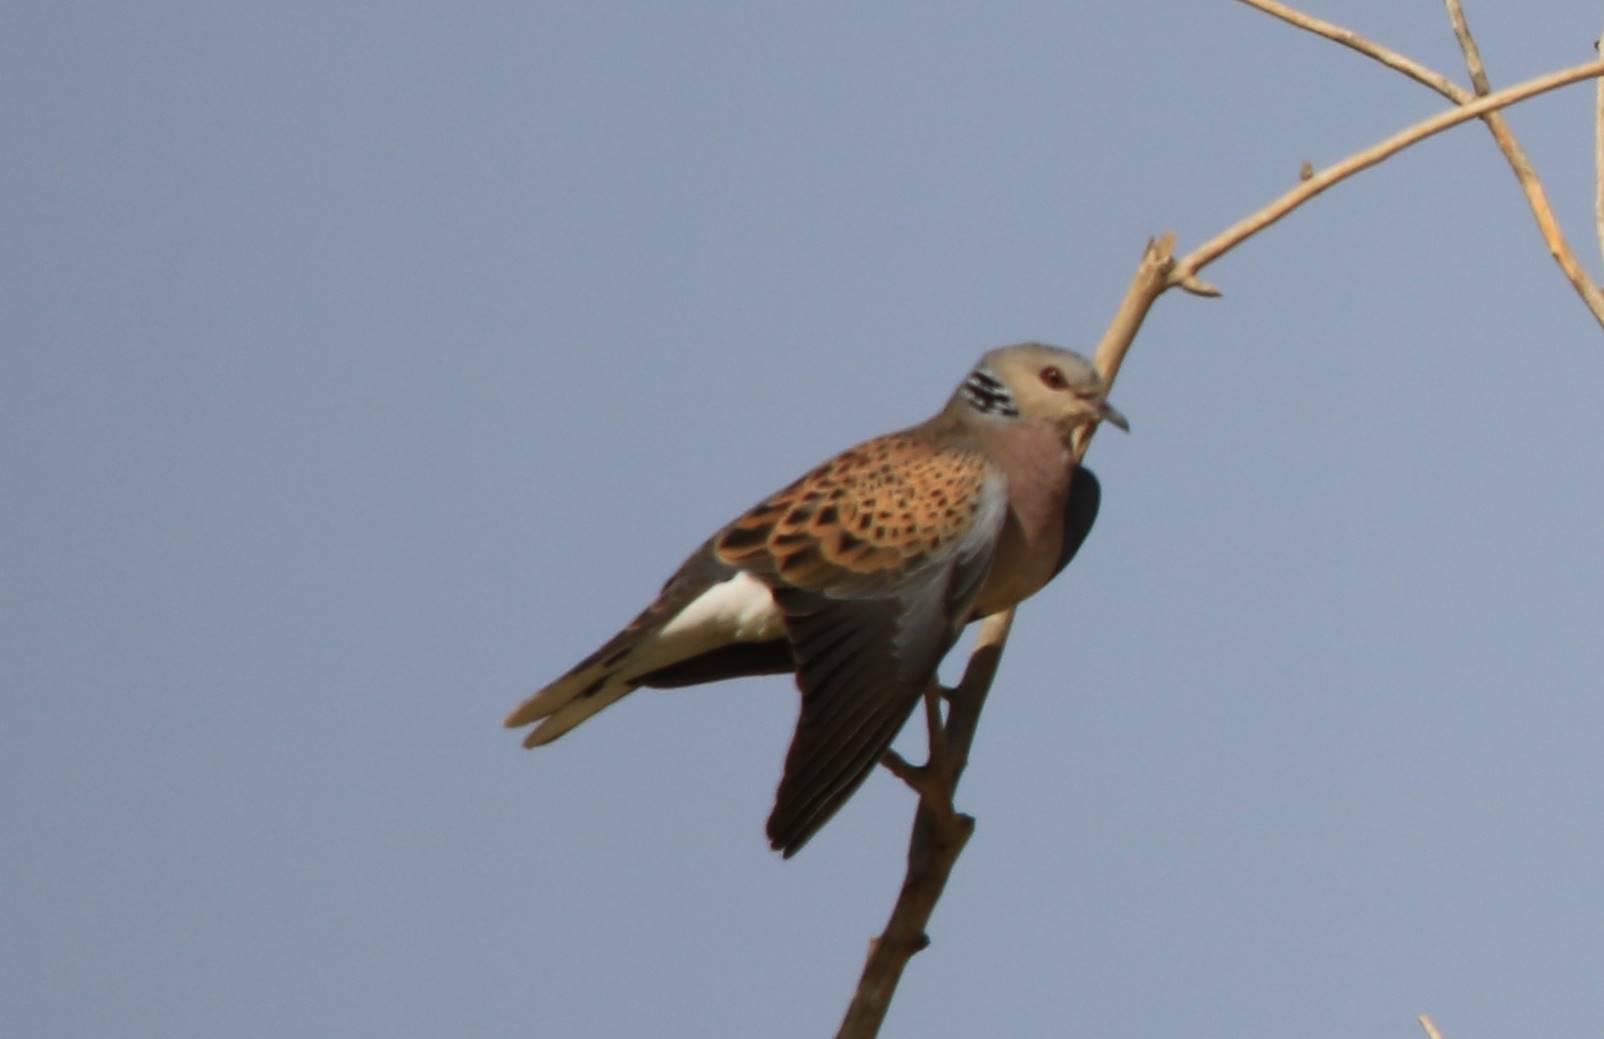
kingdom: Animalia
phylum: Chordata
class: Aves
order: Columbiformes
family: Columbidae
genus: Streptopelia
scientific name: Streptopelia turtur
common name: European turtle dove
